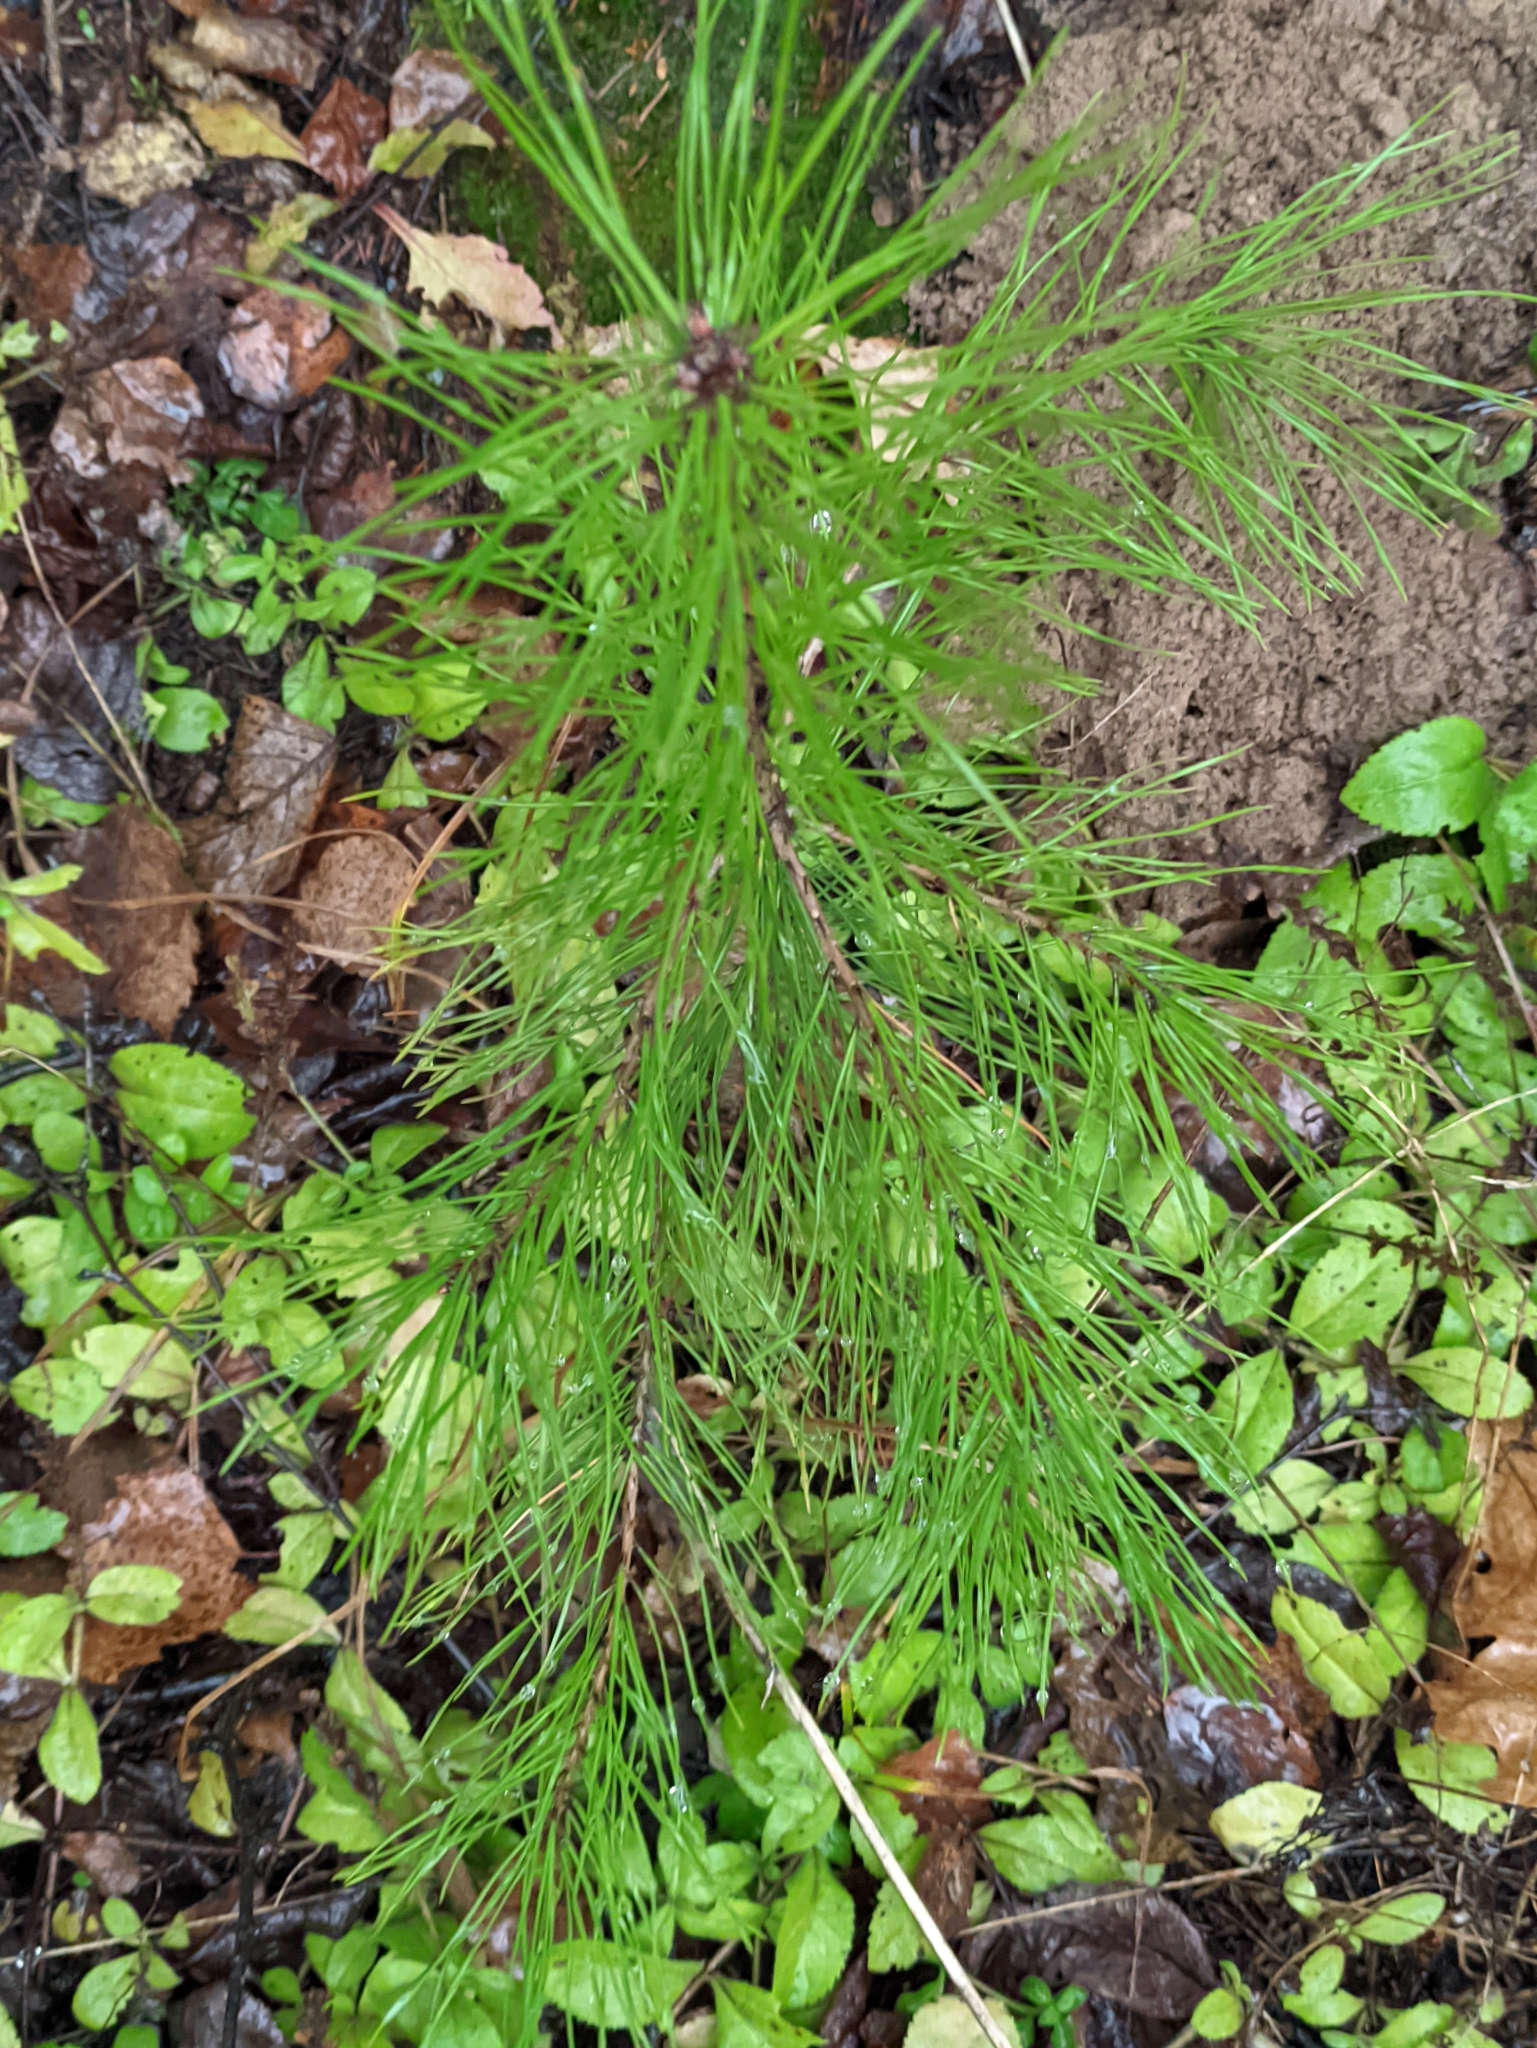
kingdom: Plantae
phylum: Tracheophyta
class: Pinopsida
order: Pinales
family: Pinaceae
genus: Pinus
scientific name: Pinus sylvestris
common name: Scots pine
